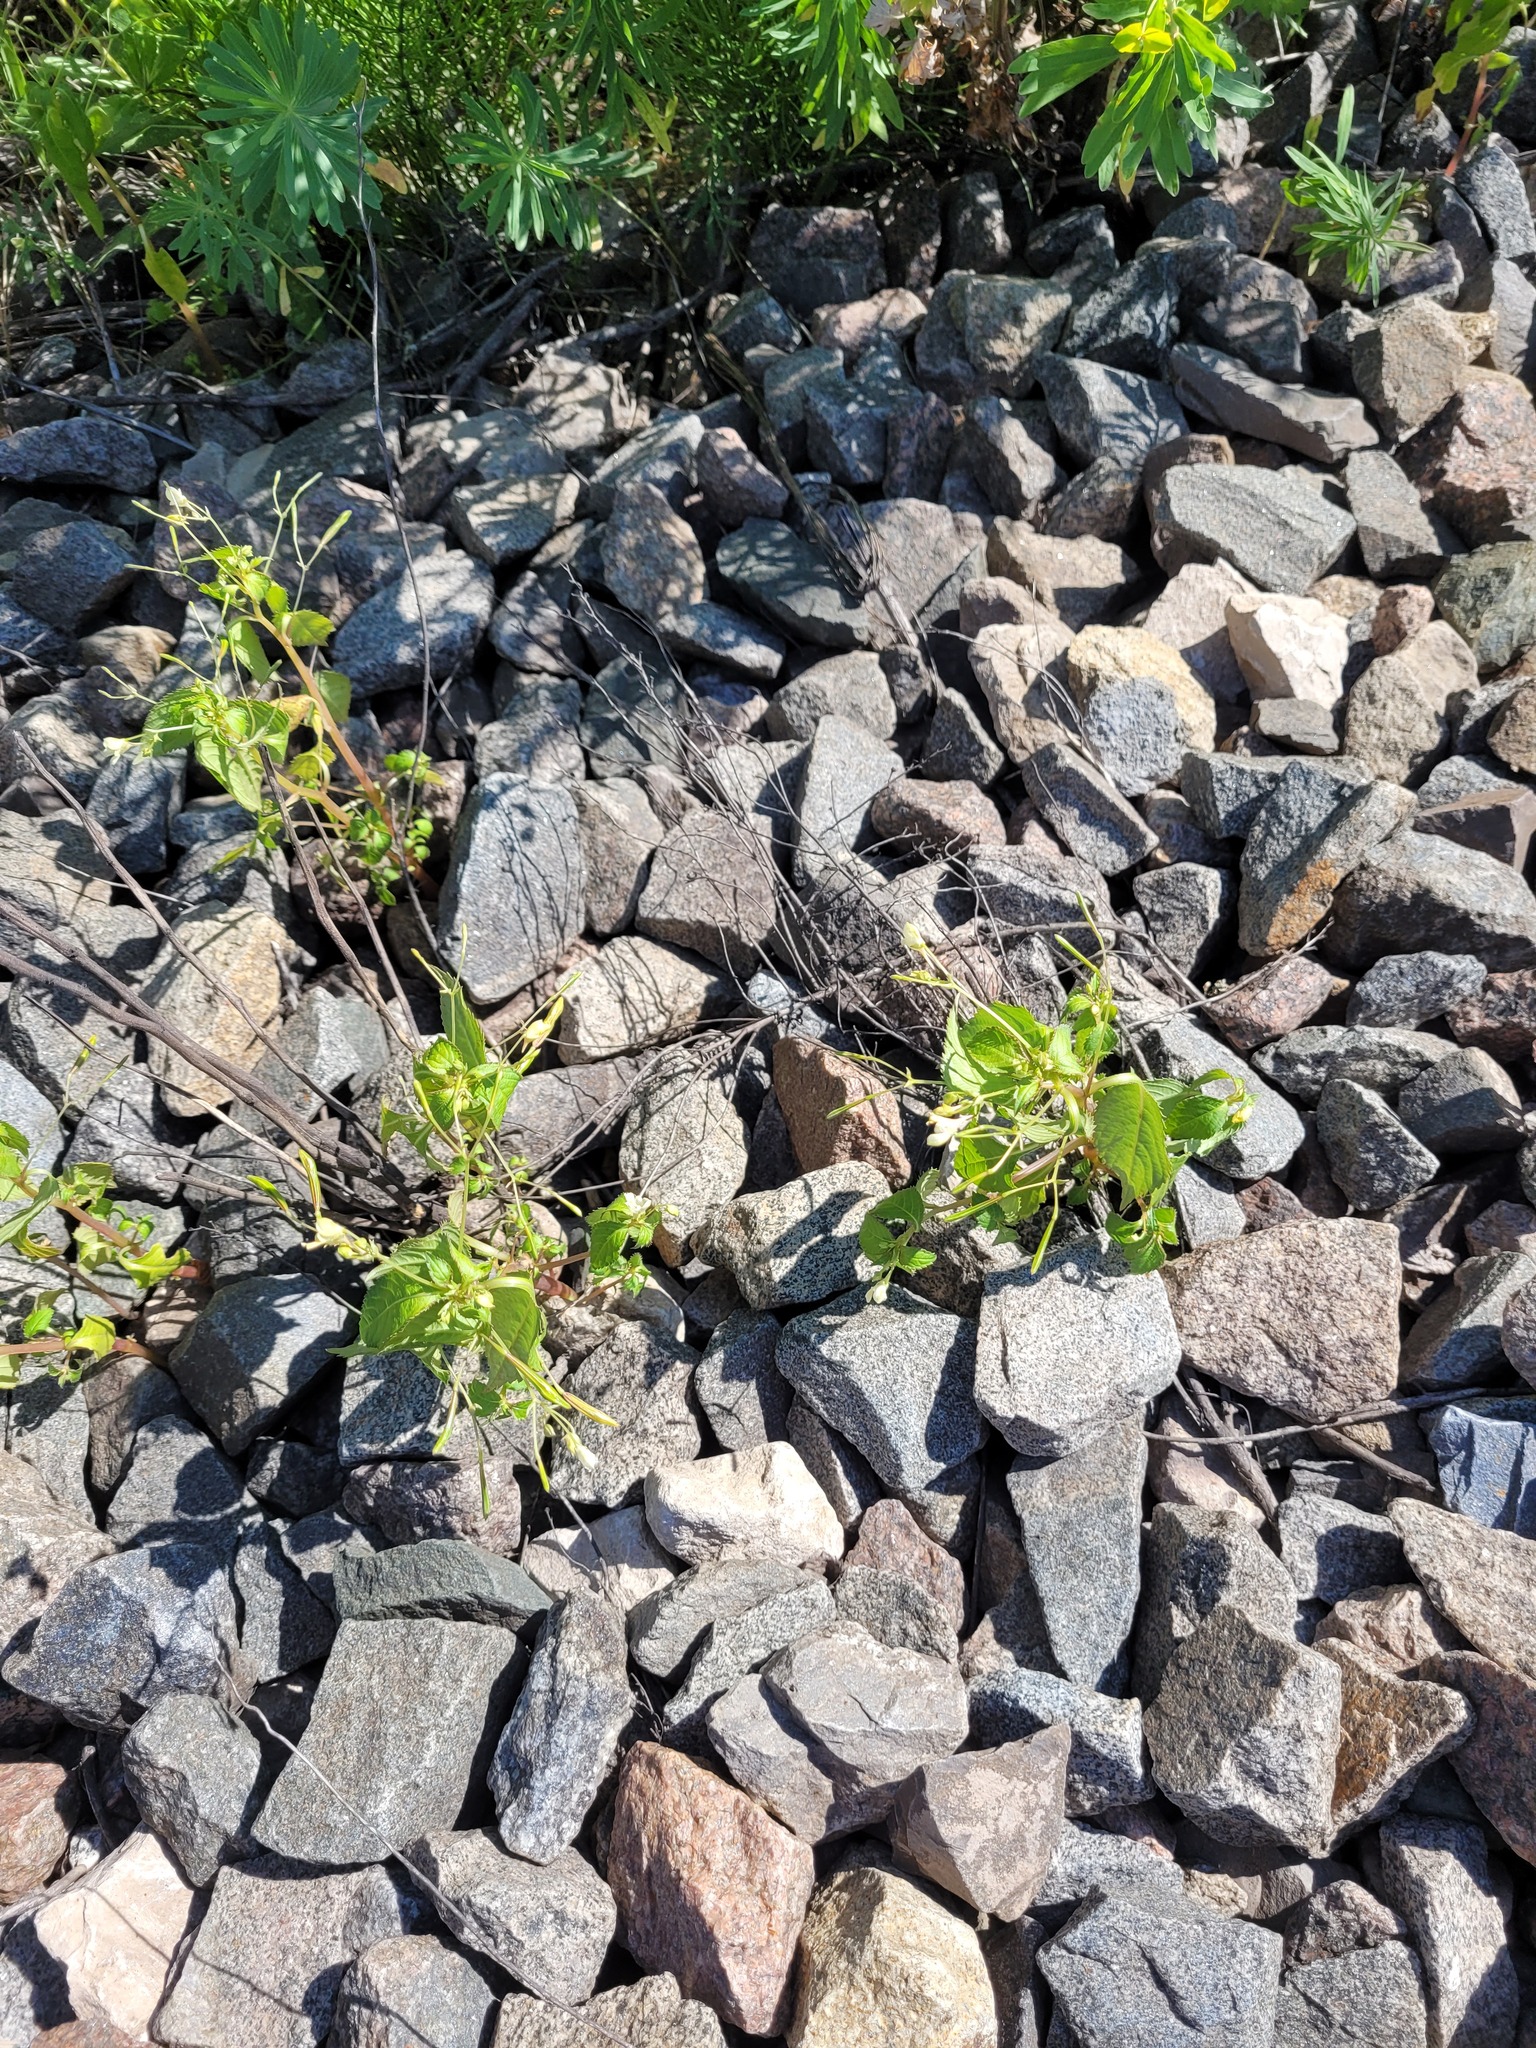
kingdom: Plantae
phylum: Tracheophyta
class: Magnoliopsida
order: Ericales
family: Balsaminaceae
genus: Impatiens
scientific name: Impatiens parviflora
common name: Small balsam
